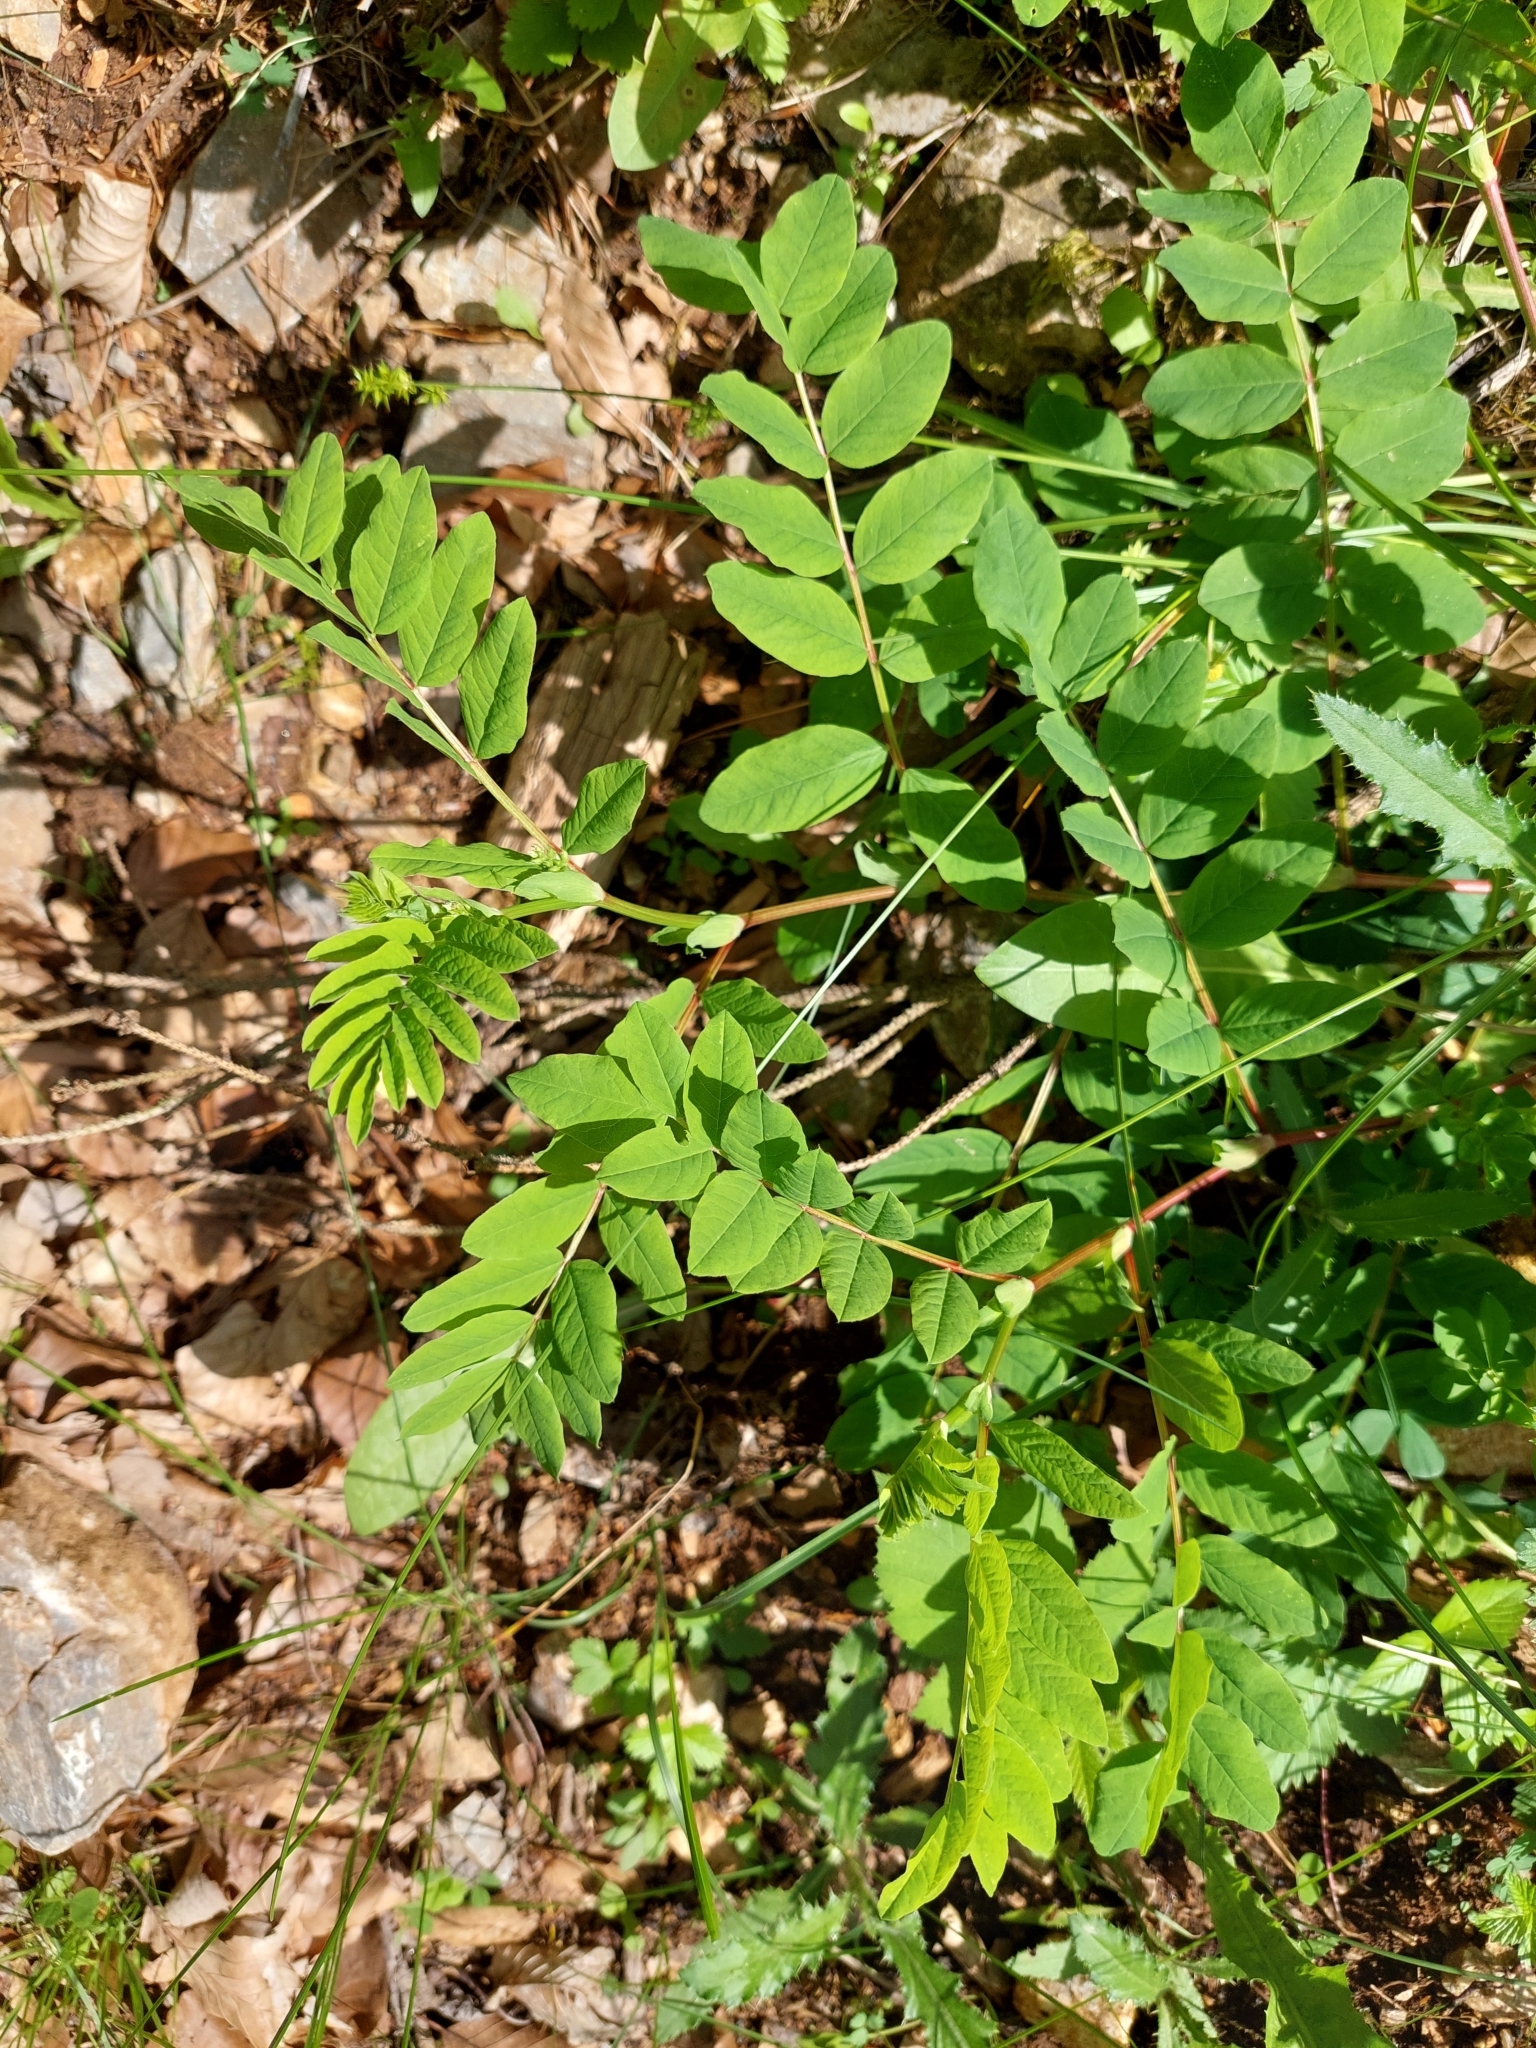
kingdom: Plantae
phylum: Tracheophyta
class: Magnoliopsida
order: Fabales
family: Fabaceae
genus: Astragalus
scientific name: Astragalus glycyphyllos
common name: Wild liquorice
